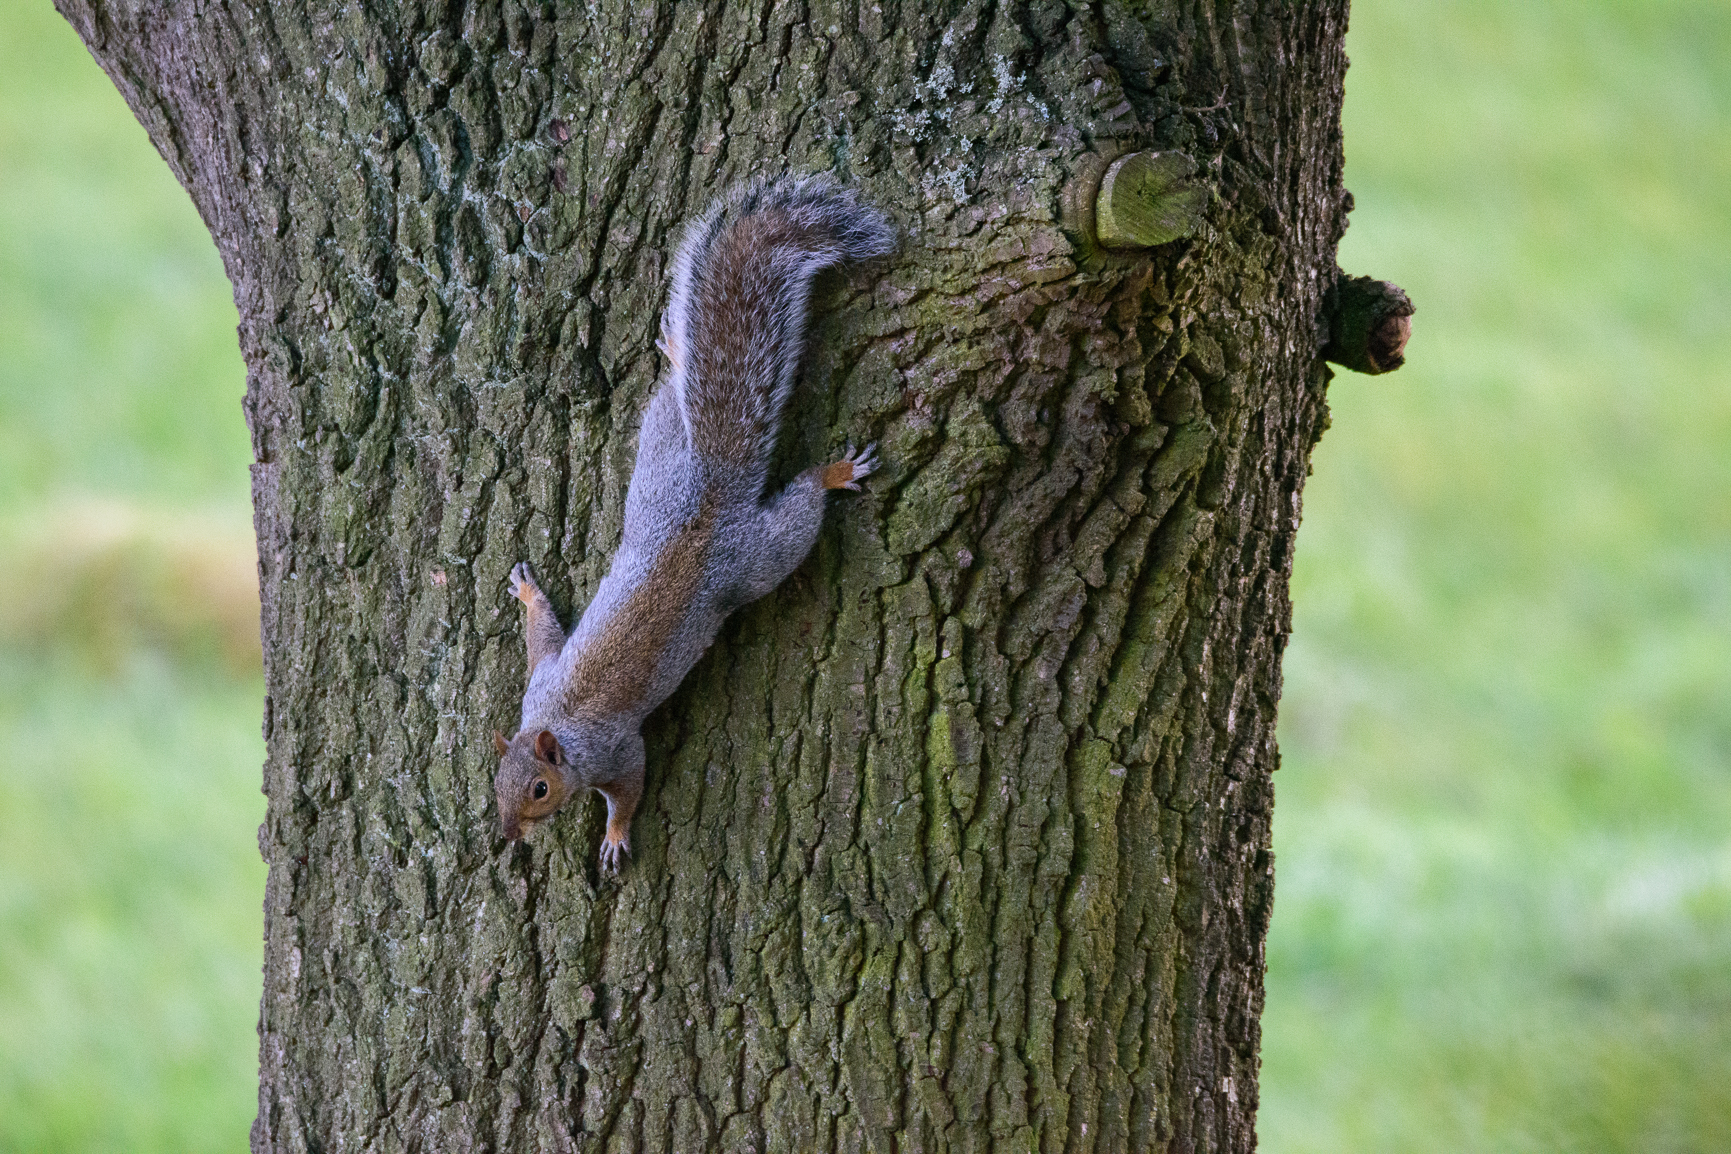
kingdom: Animalia
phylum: Chordata
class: Mammalia
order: Rodentia
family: Sciuridae
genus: Sciurus
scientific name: Sciurus carolinensis
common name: Eastern gray squirrel
